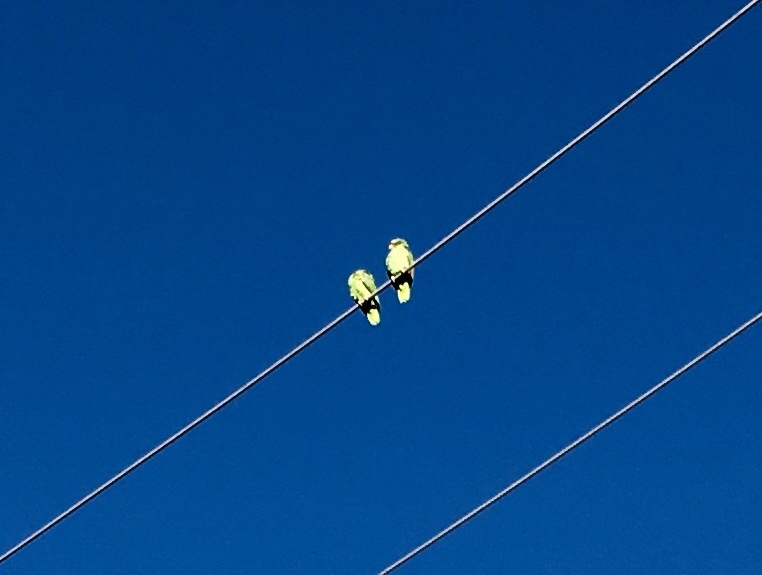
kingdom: Animalia
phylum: Chordata
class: Aves
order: Psittaciformes
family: Psittacidae
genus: Amazona
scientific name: Amazona
